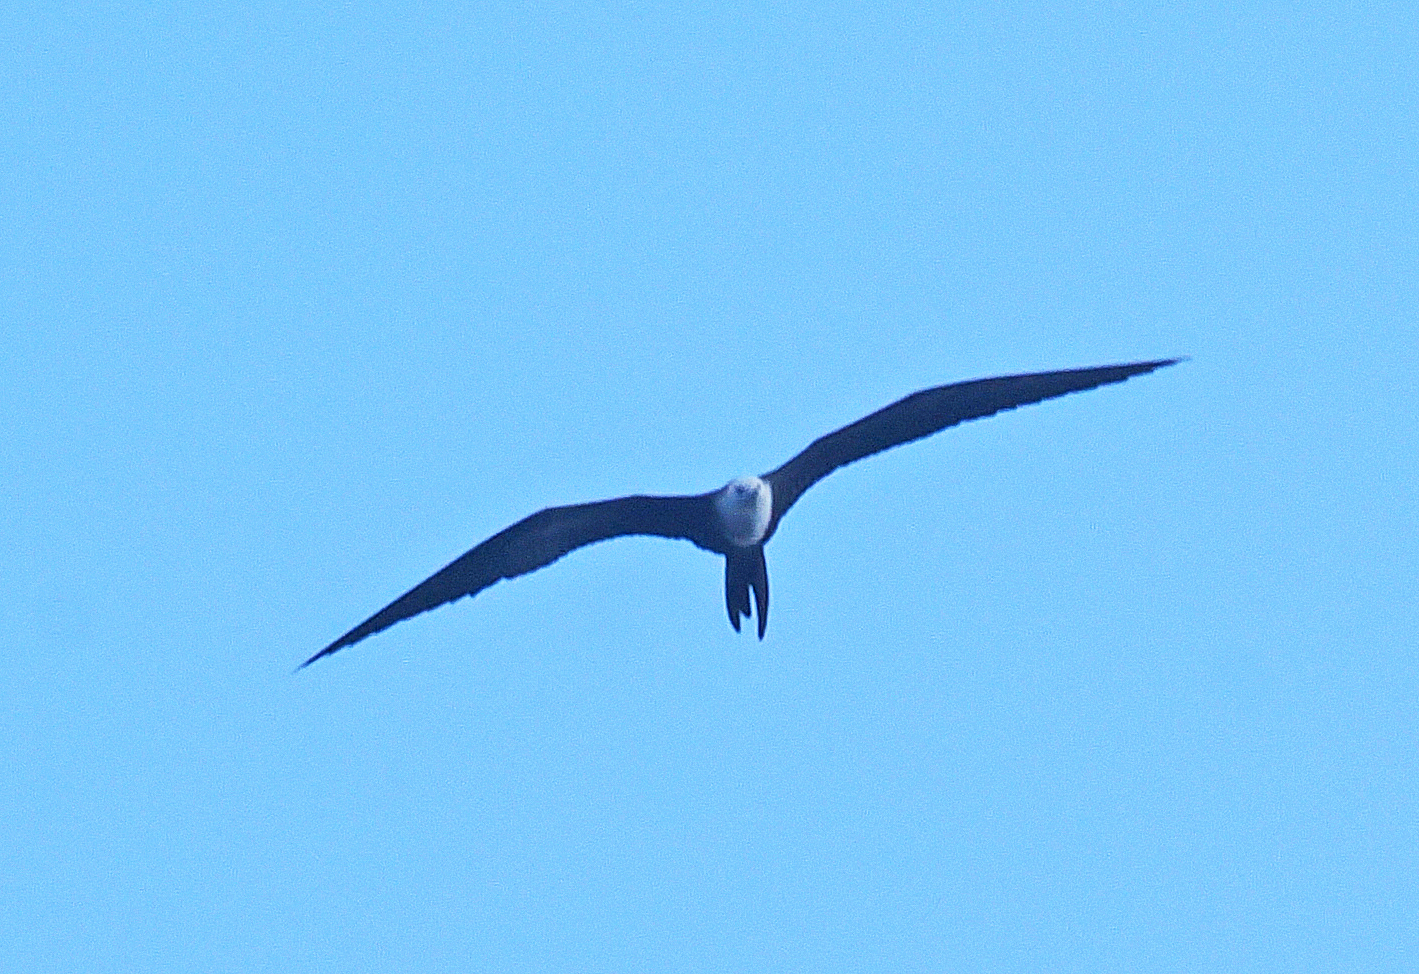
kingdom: Animalia
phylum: Chordata
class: Aves
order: Suliformes
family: Fregatidae
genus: Fregata
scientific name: Fregata magnificens
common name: Magnificent frigatebird
